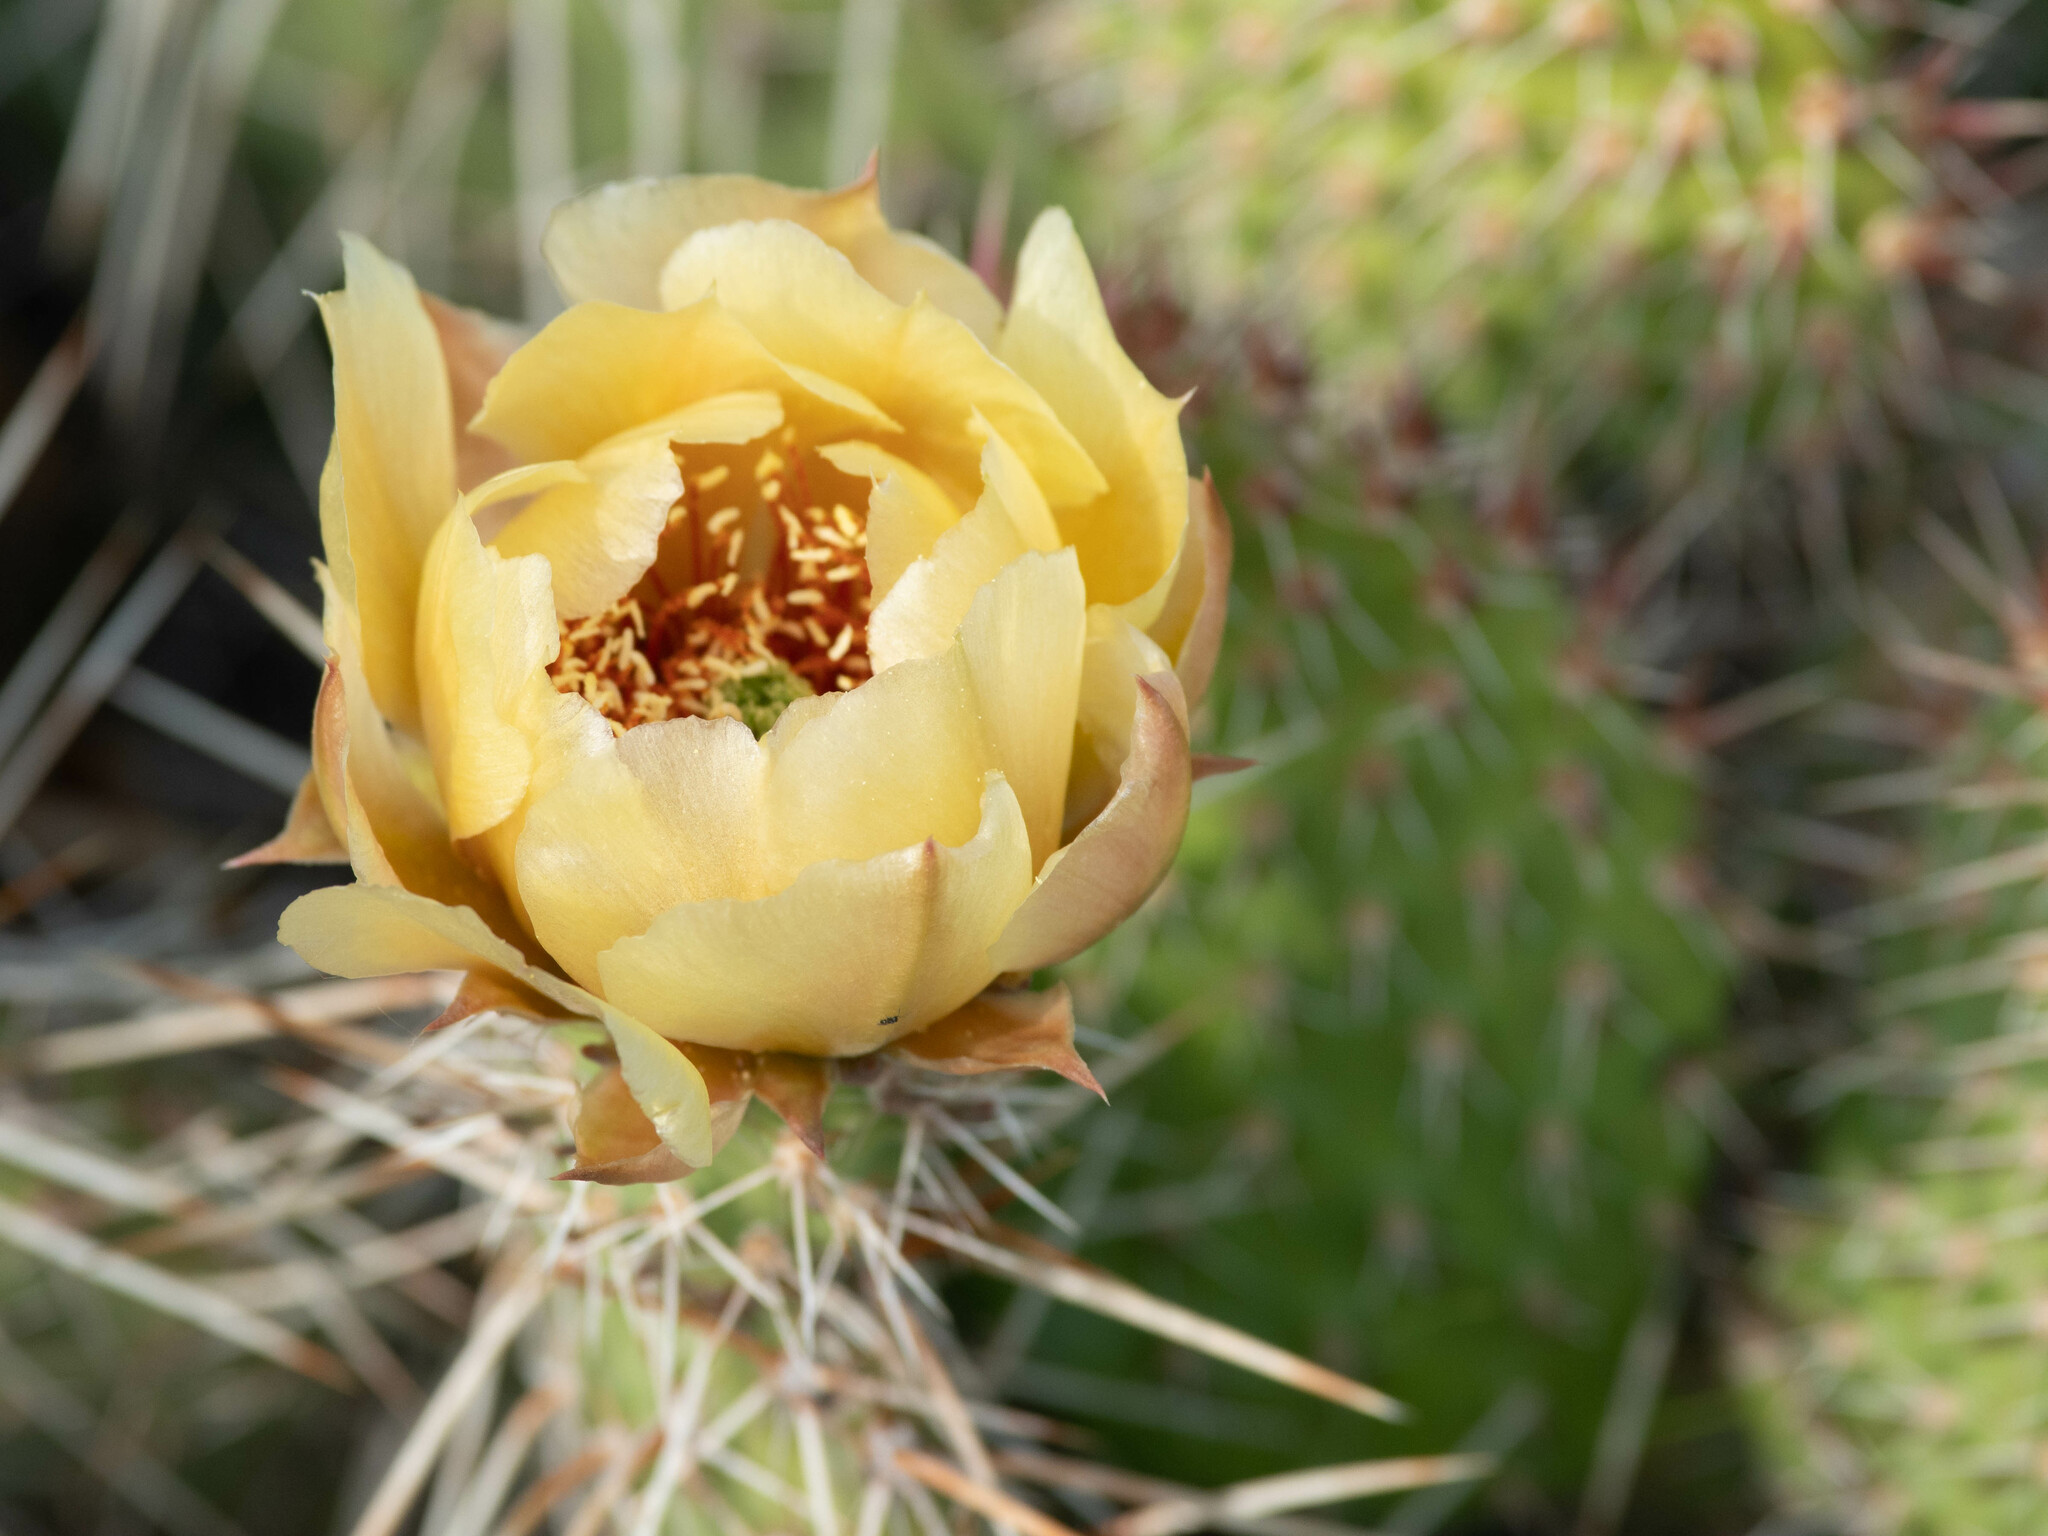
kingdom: Plantae
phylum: Tracheophyta
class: Magnoliopsida
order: Caryophyllales
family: Cactaceae
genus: Opuntia
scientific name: Opuntia polyacantha
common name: Plains prickly-pear
